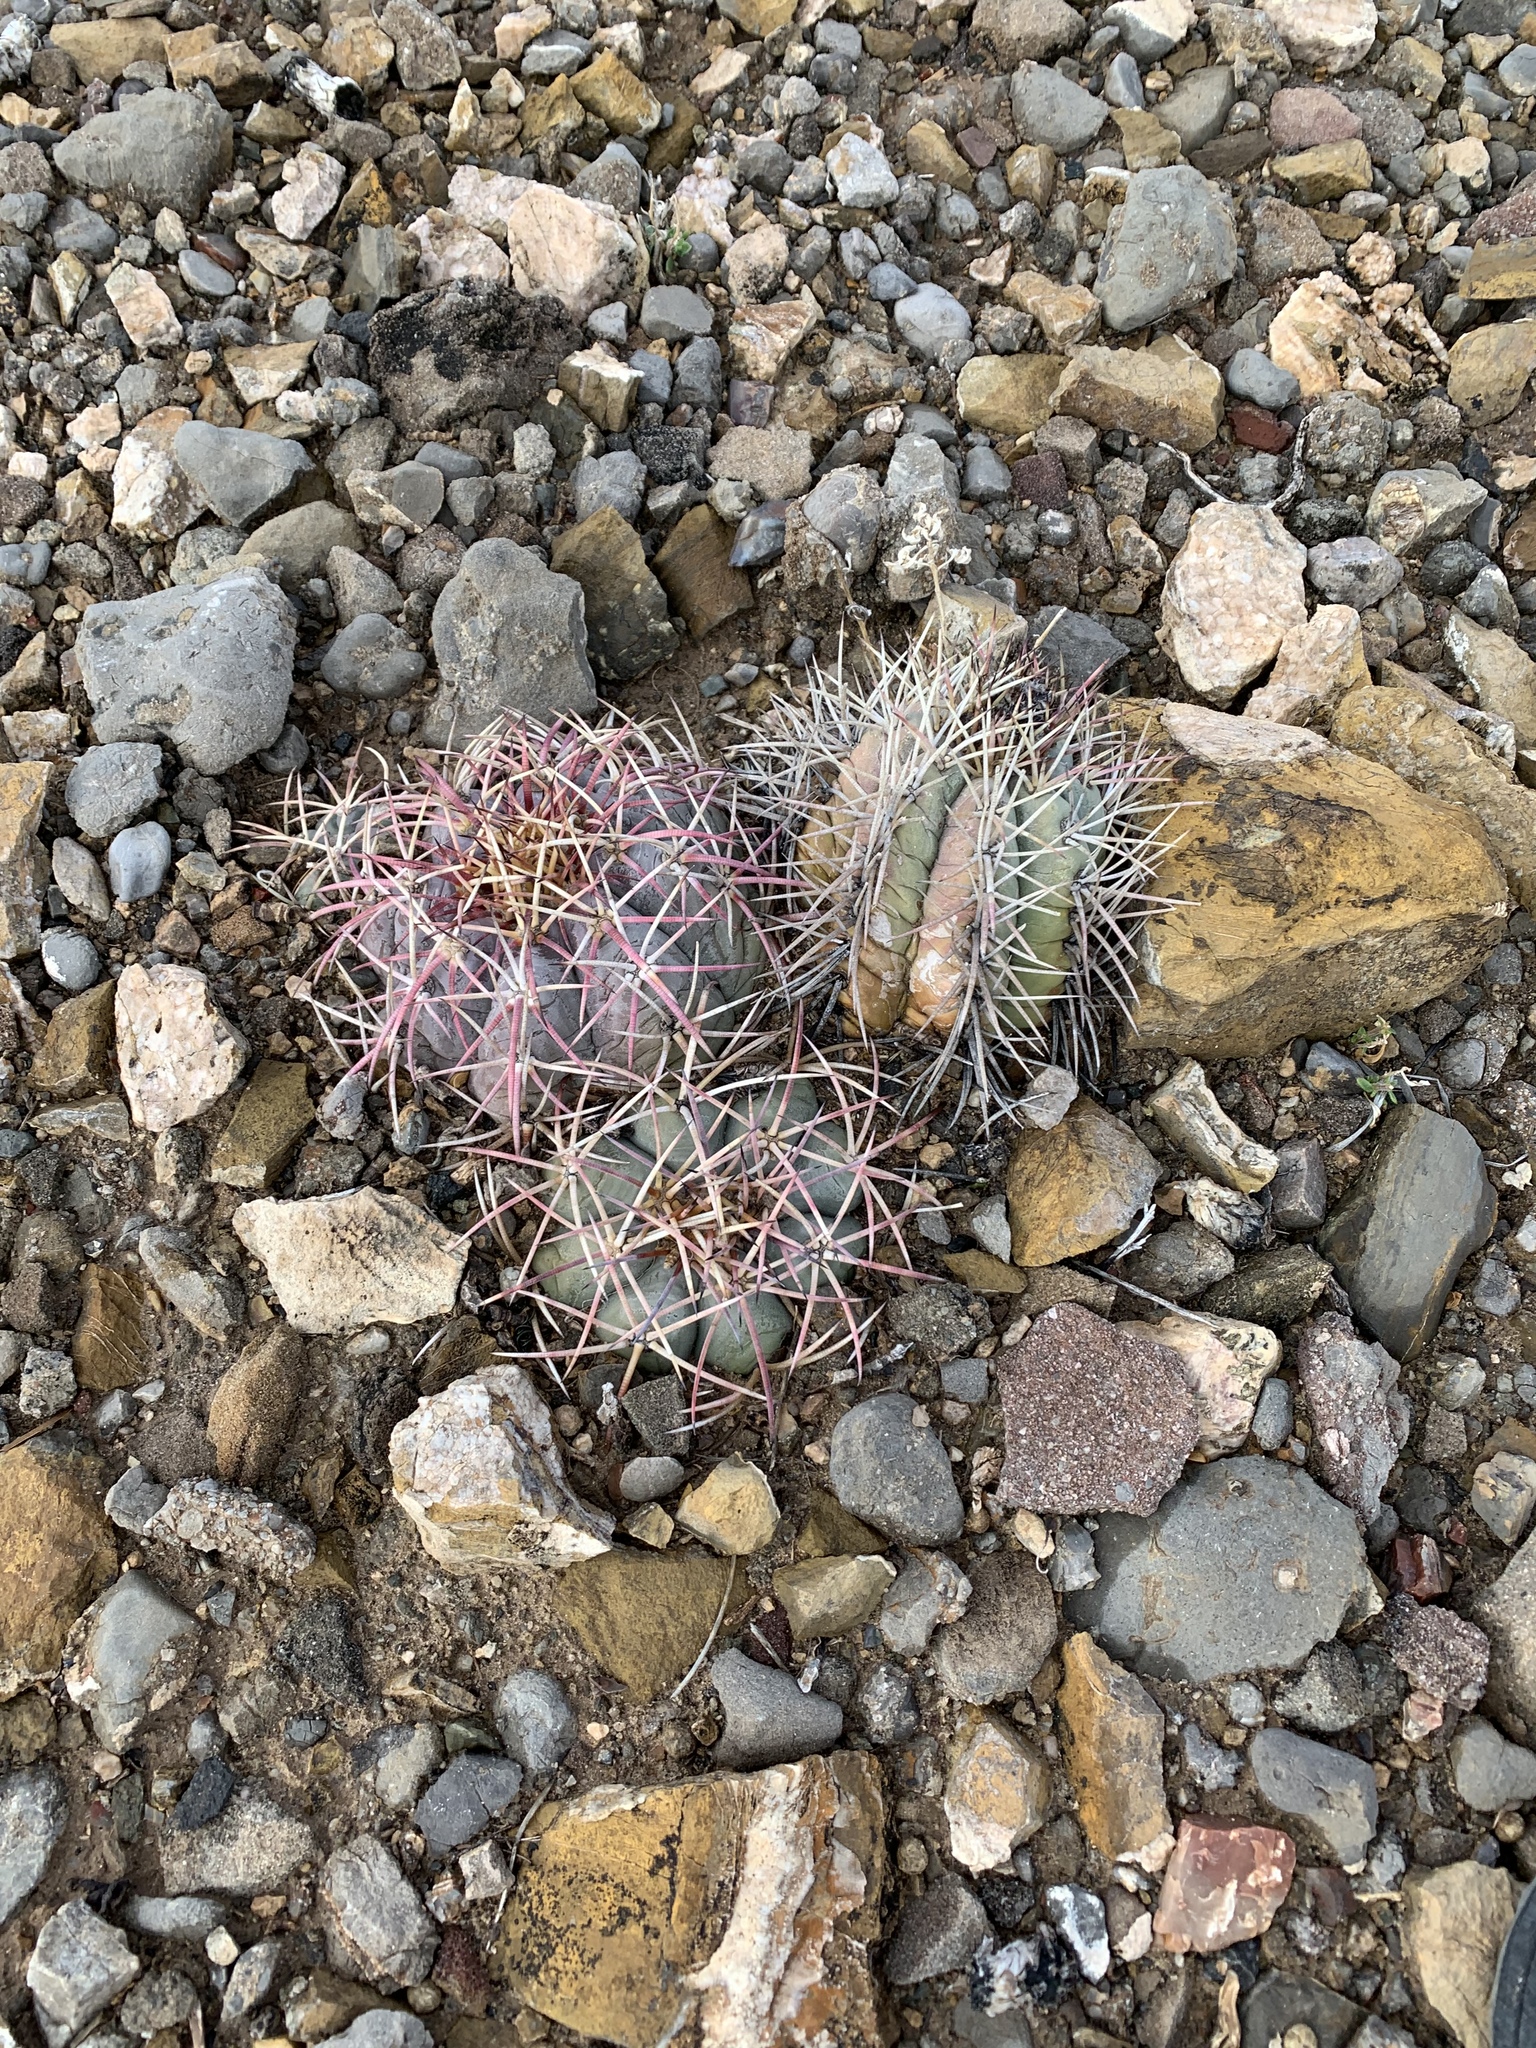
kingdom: Plantae
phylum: Tracheophyta
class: Magnoliopsida
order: Caryophyllales
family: Cactaceae
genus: Echinocactus
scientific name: Echinocactus horizonthalonius
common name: Devilshead
